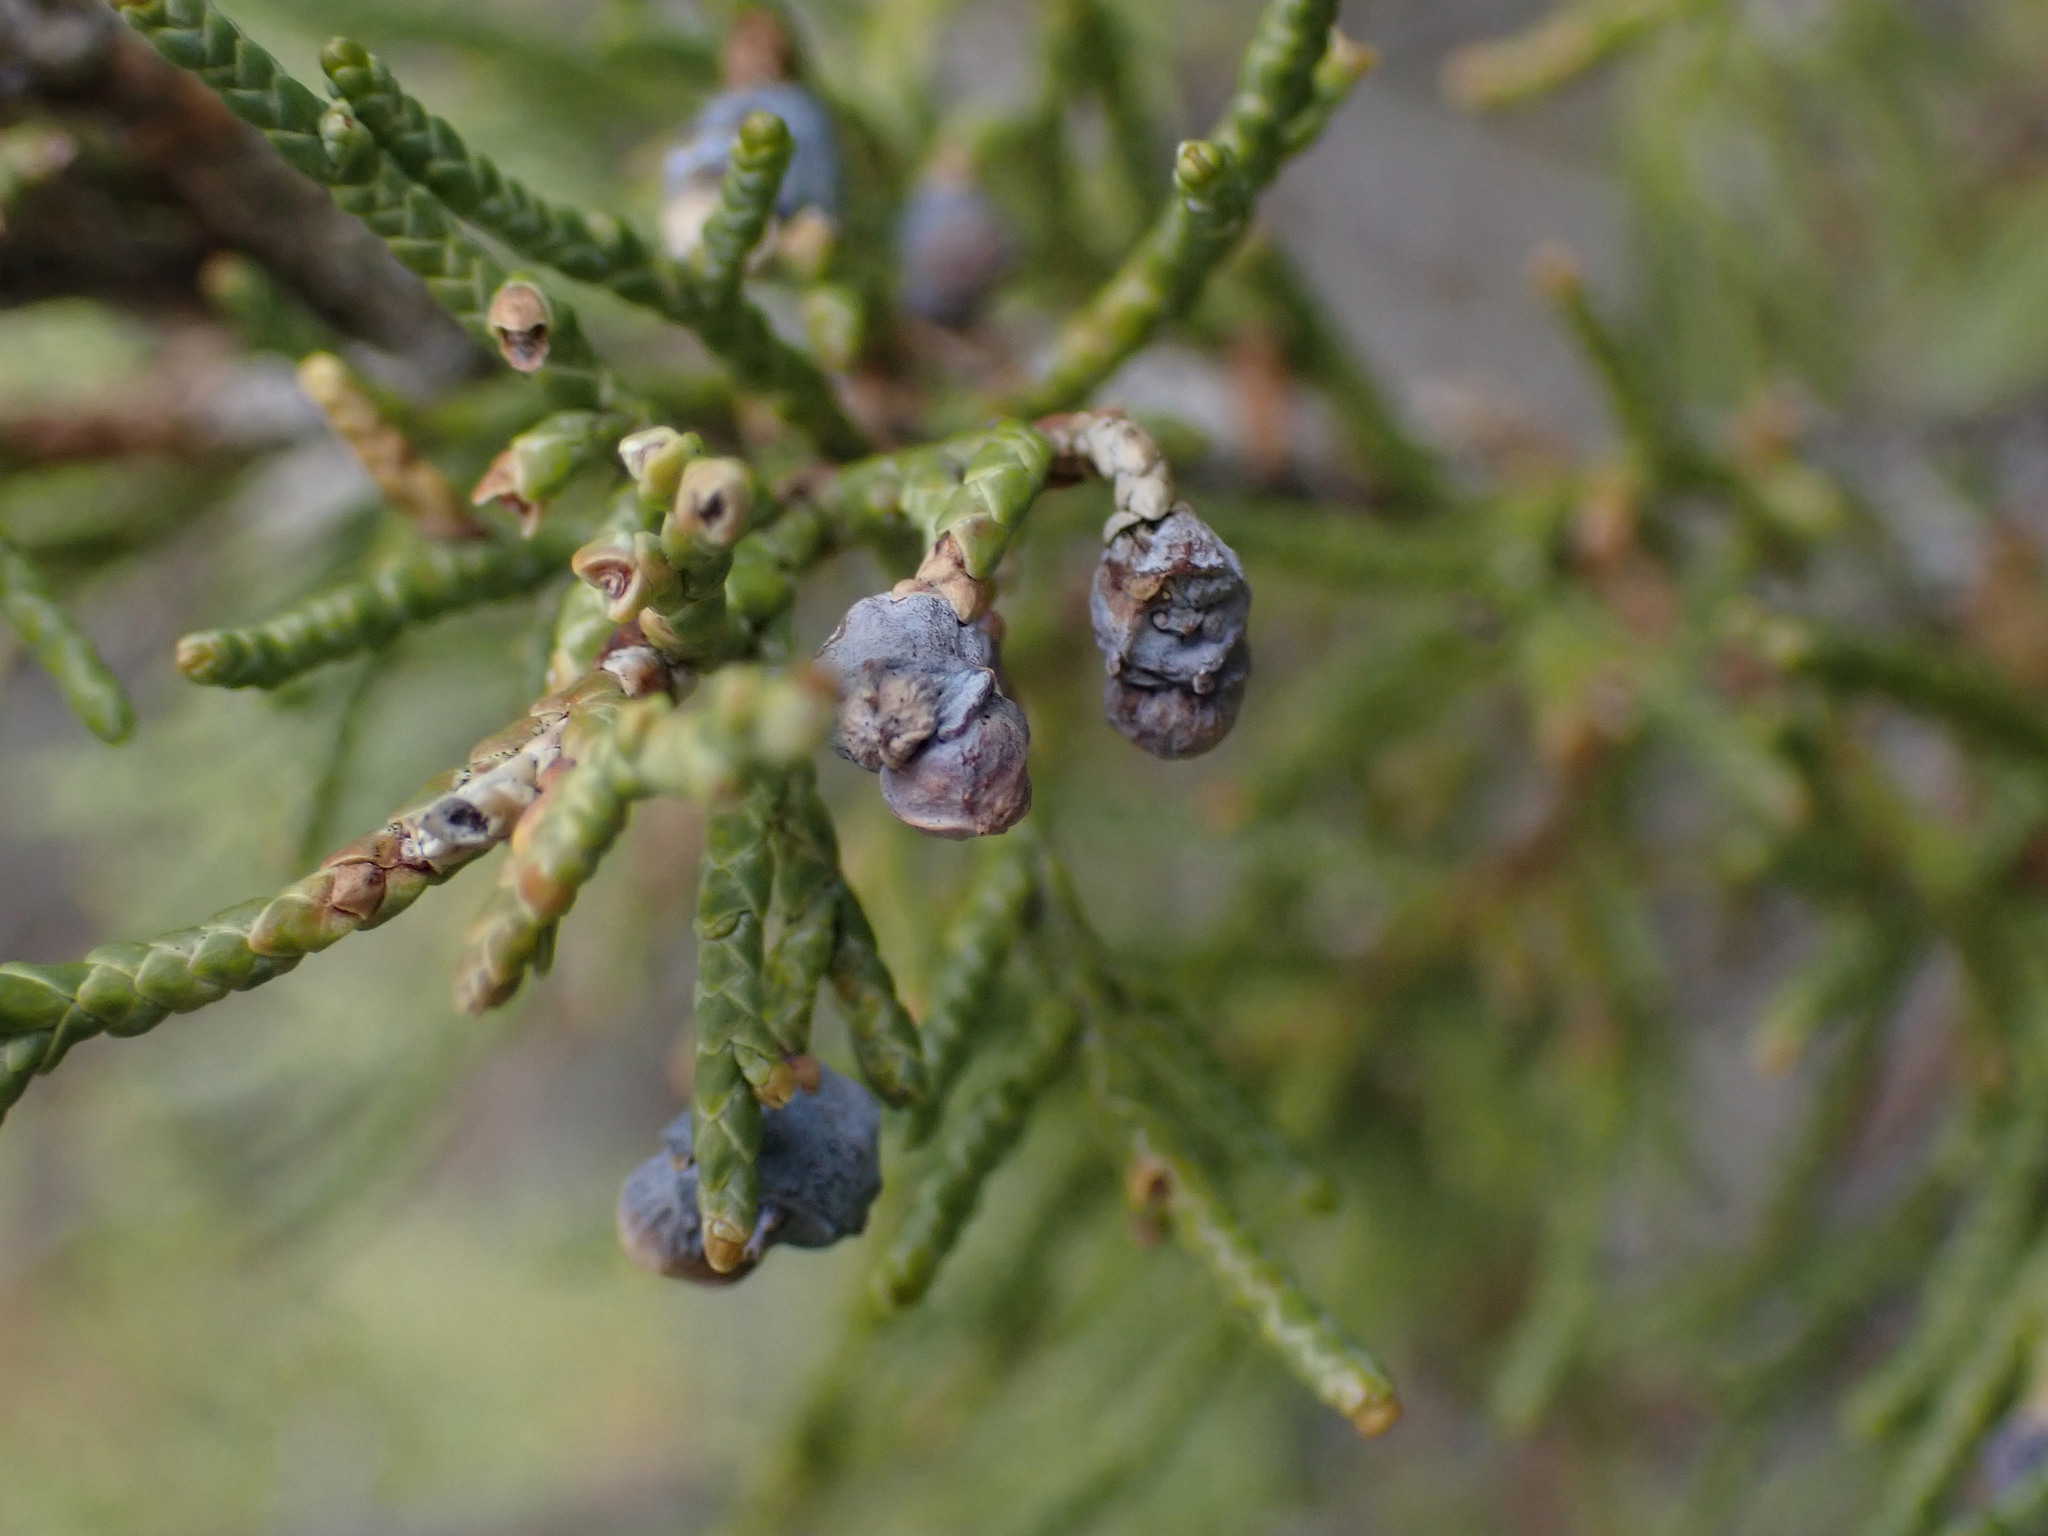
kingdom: Plantae
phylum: Tracheophyta
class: Pinopsida
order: Pinales
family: Cupressaceae
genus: Juniperus
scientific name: Juniperus scopulorum
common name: Rocky mountain juniper
